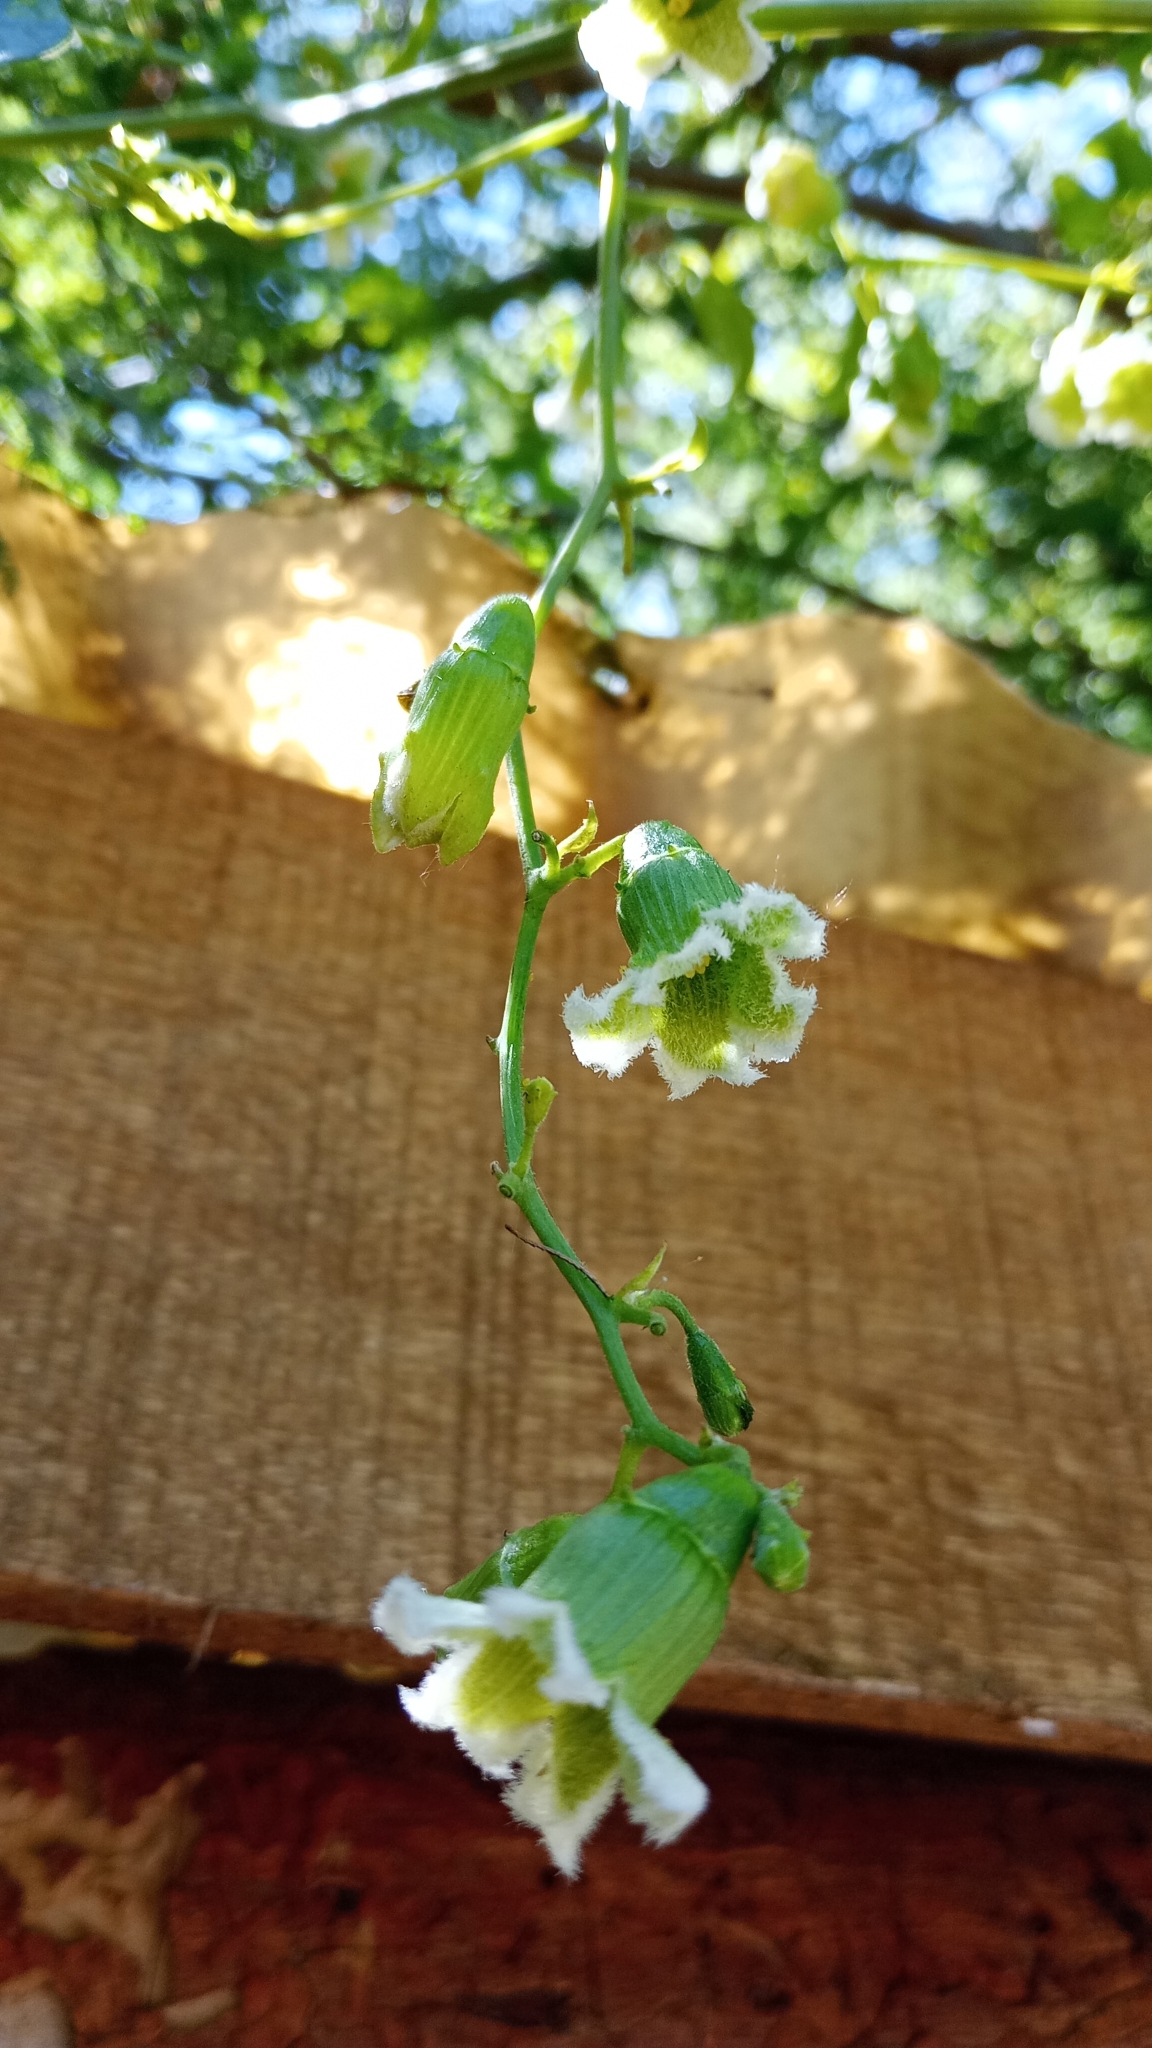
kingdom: Plantae
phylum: Tracheophyta
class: Magnoliopsida
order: Cucurbitales
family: Cucurbitaceae
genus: Cayaponia
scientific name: Cayaponia podantha
